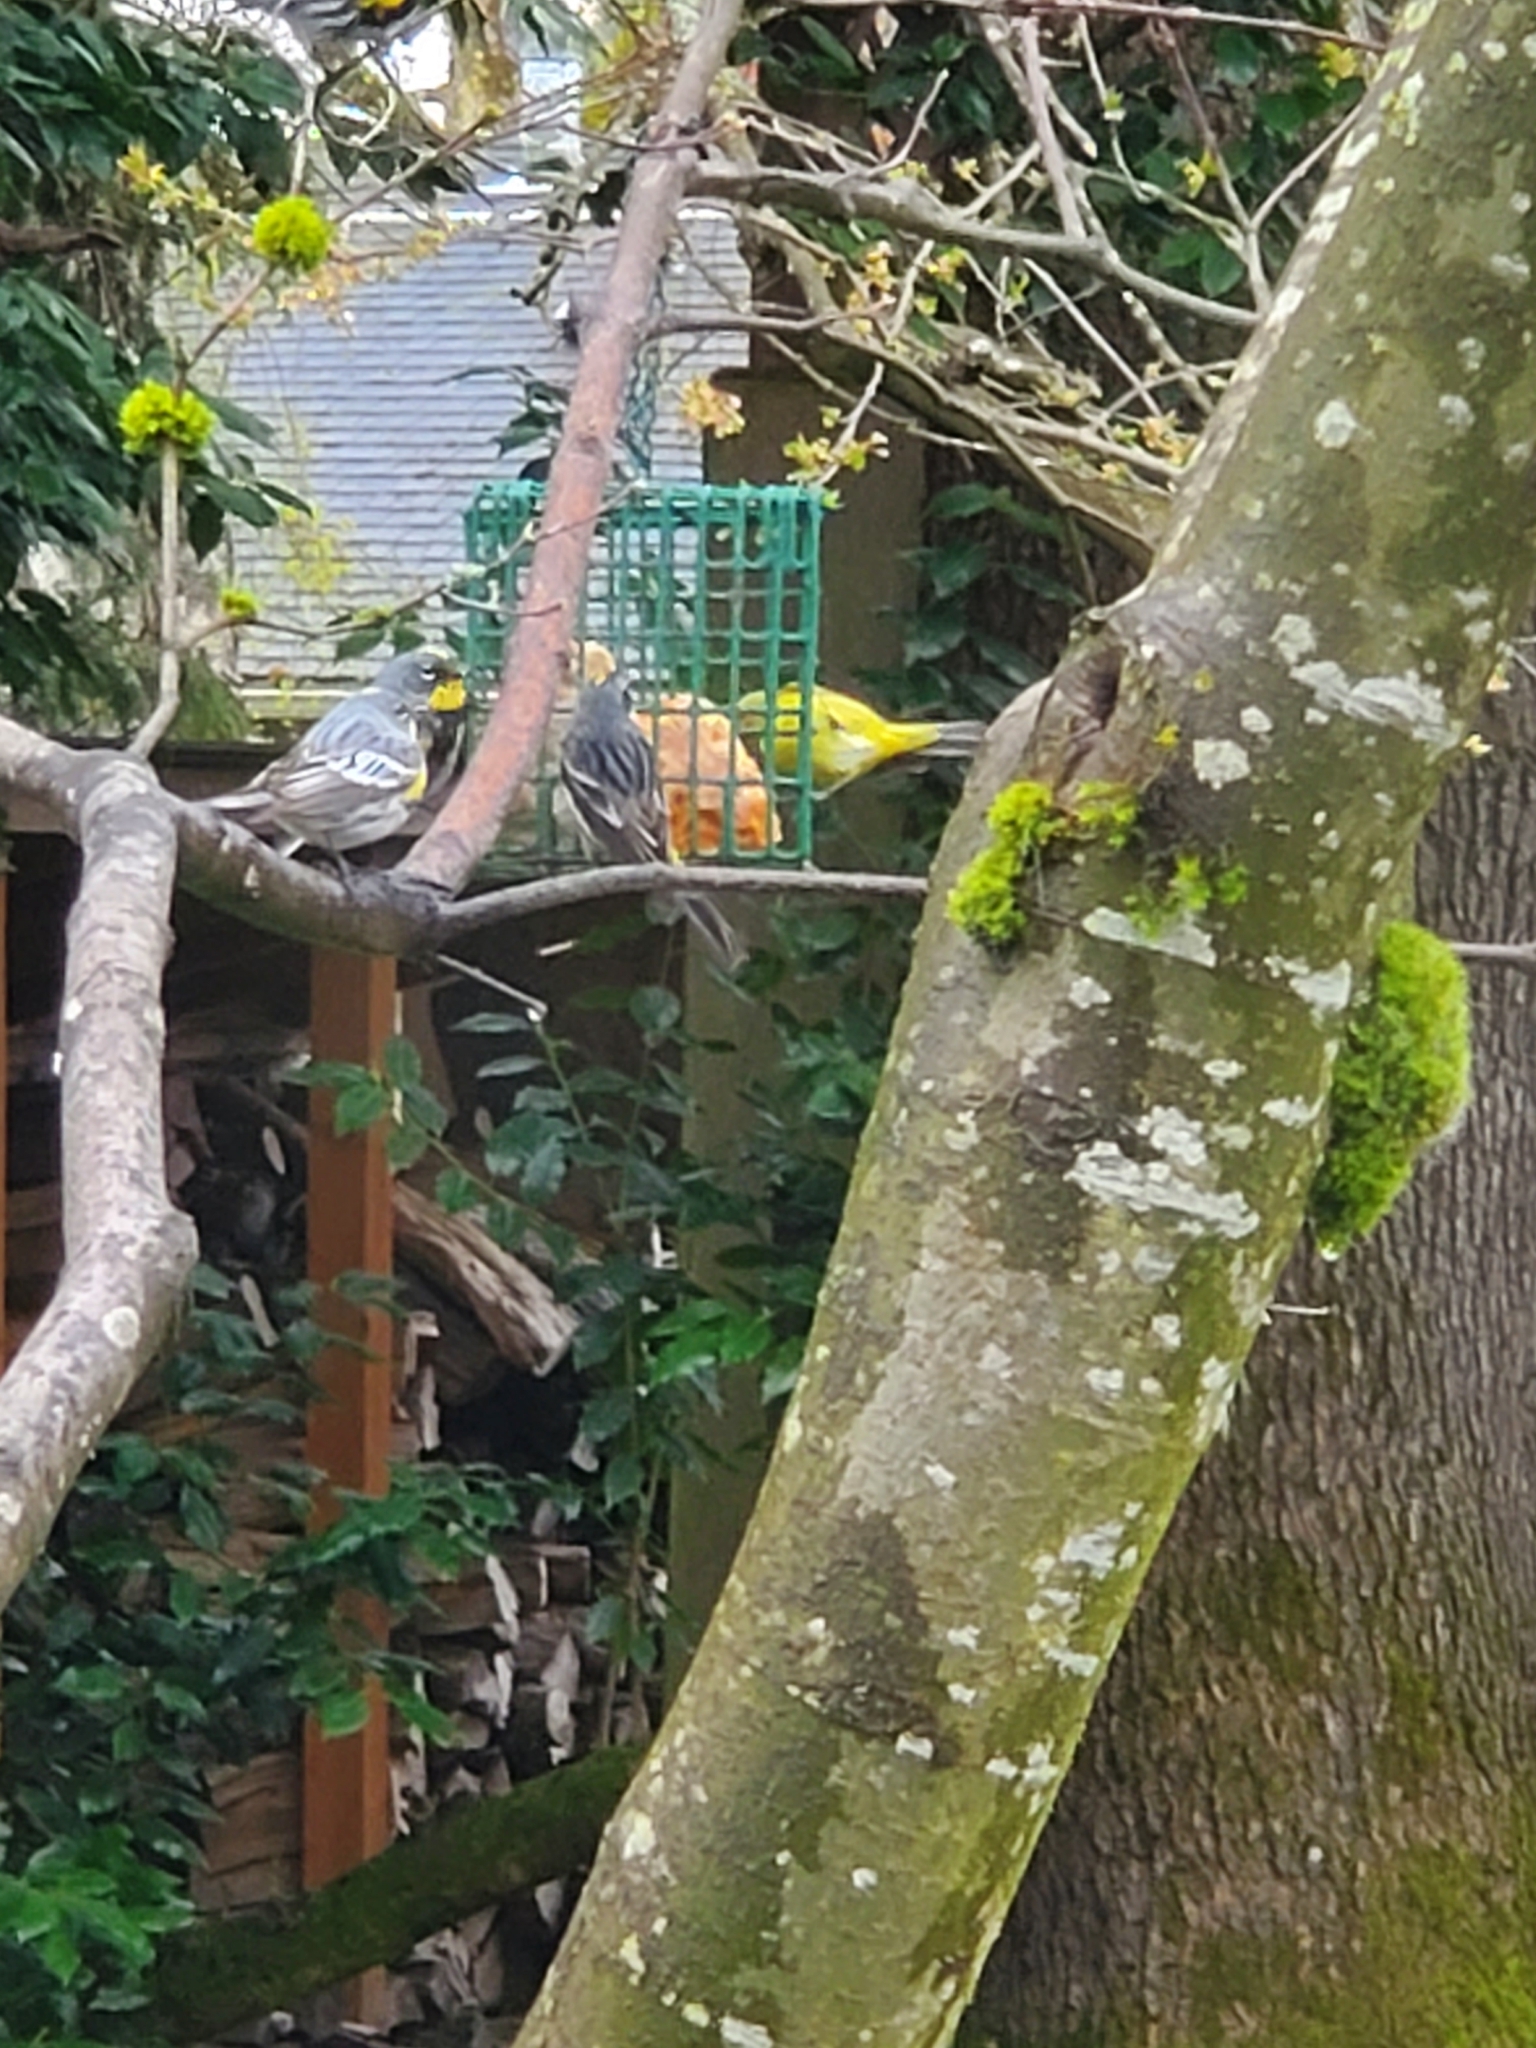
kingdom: Animalia
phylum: Chordata
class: Aves
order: Passeriformes
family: Parulidae
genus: Leiothlypis
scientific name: Leiothlypis celata
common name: Orange-crowned warbler
